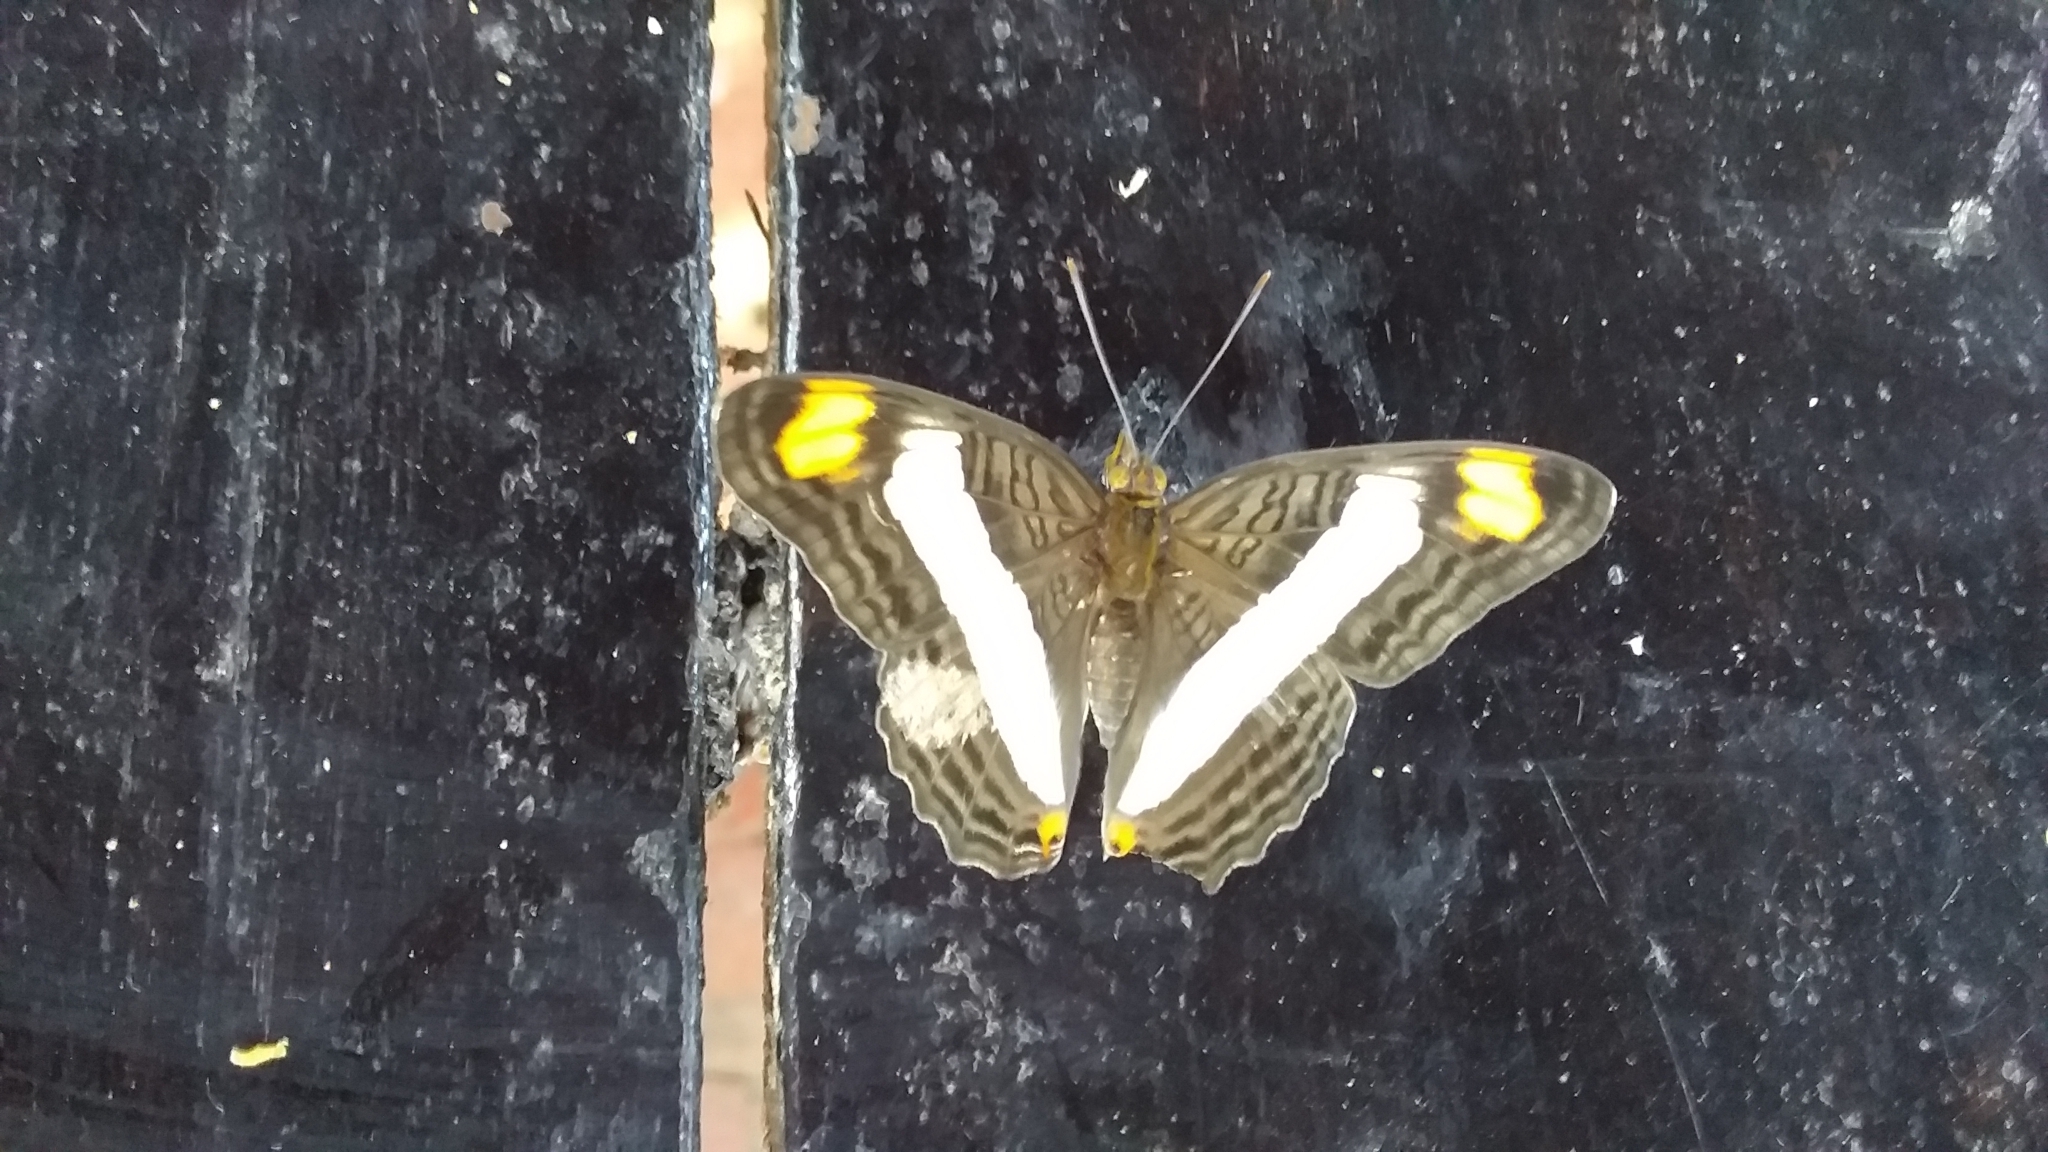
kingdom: Animalia
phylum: Arthropoda
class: Insecta
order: Lepidoptera
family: Nymphalidae
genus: Limenitis
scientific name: Limenitis Adelpha basiloides
